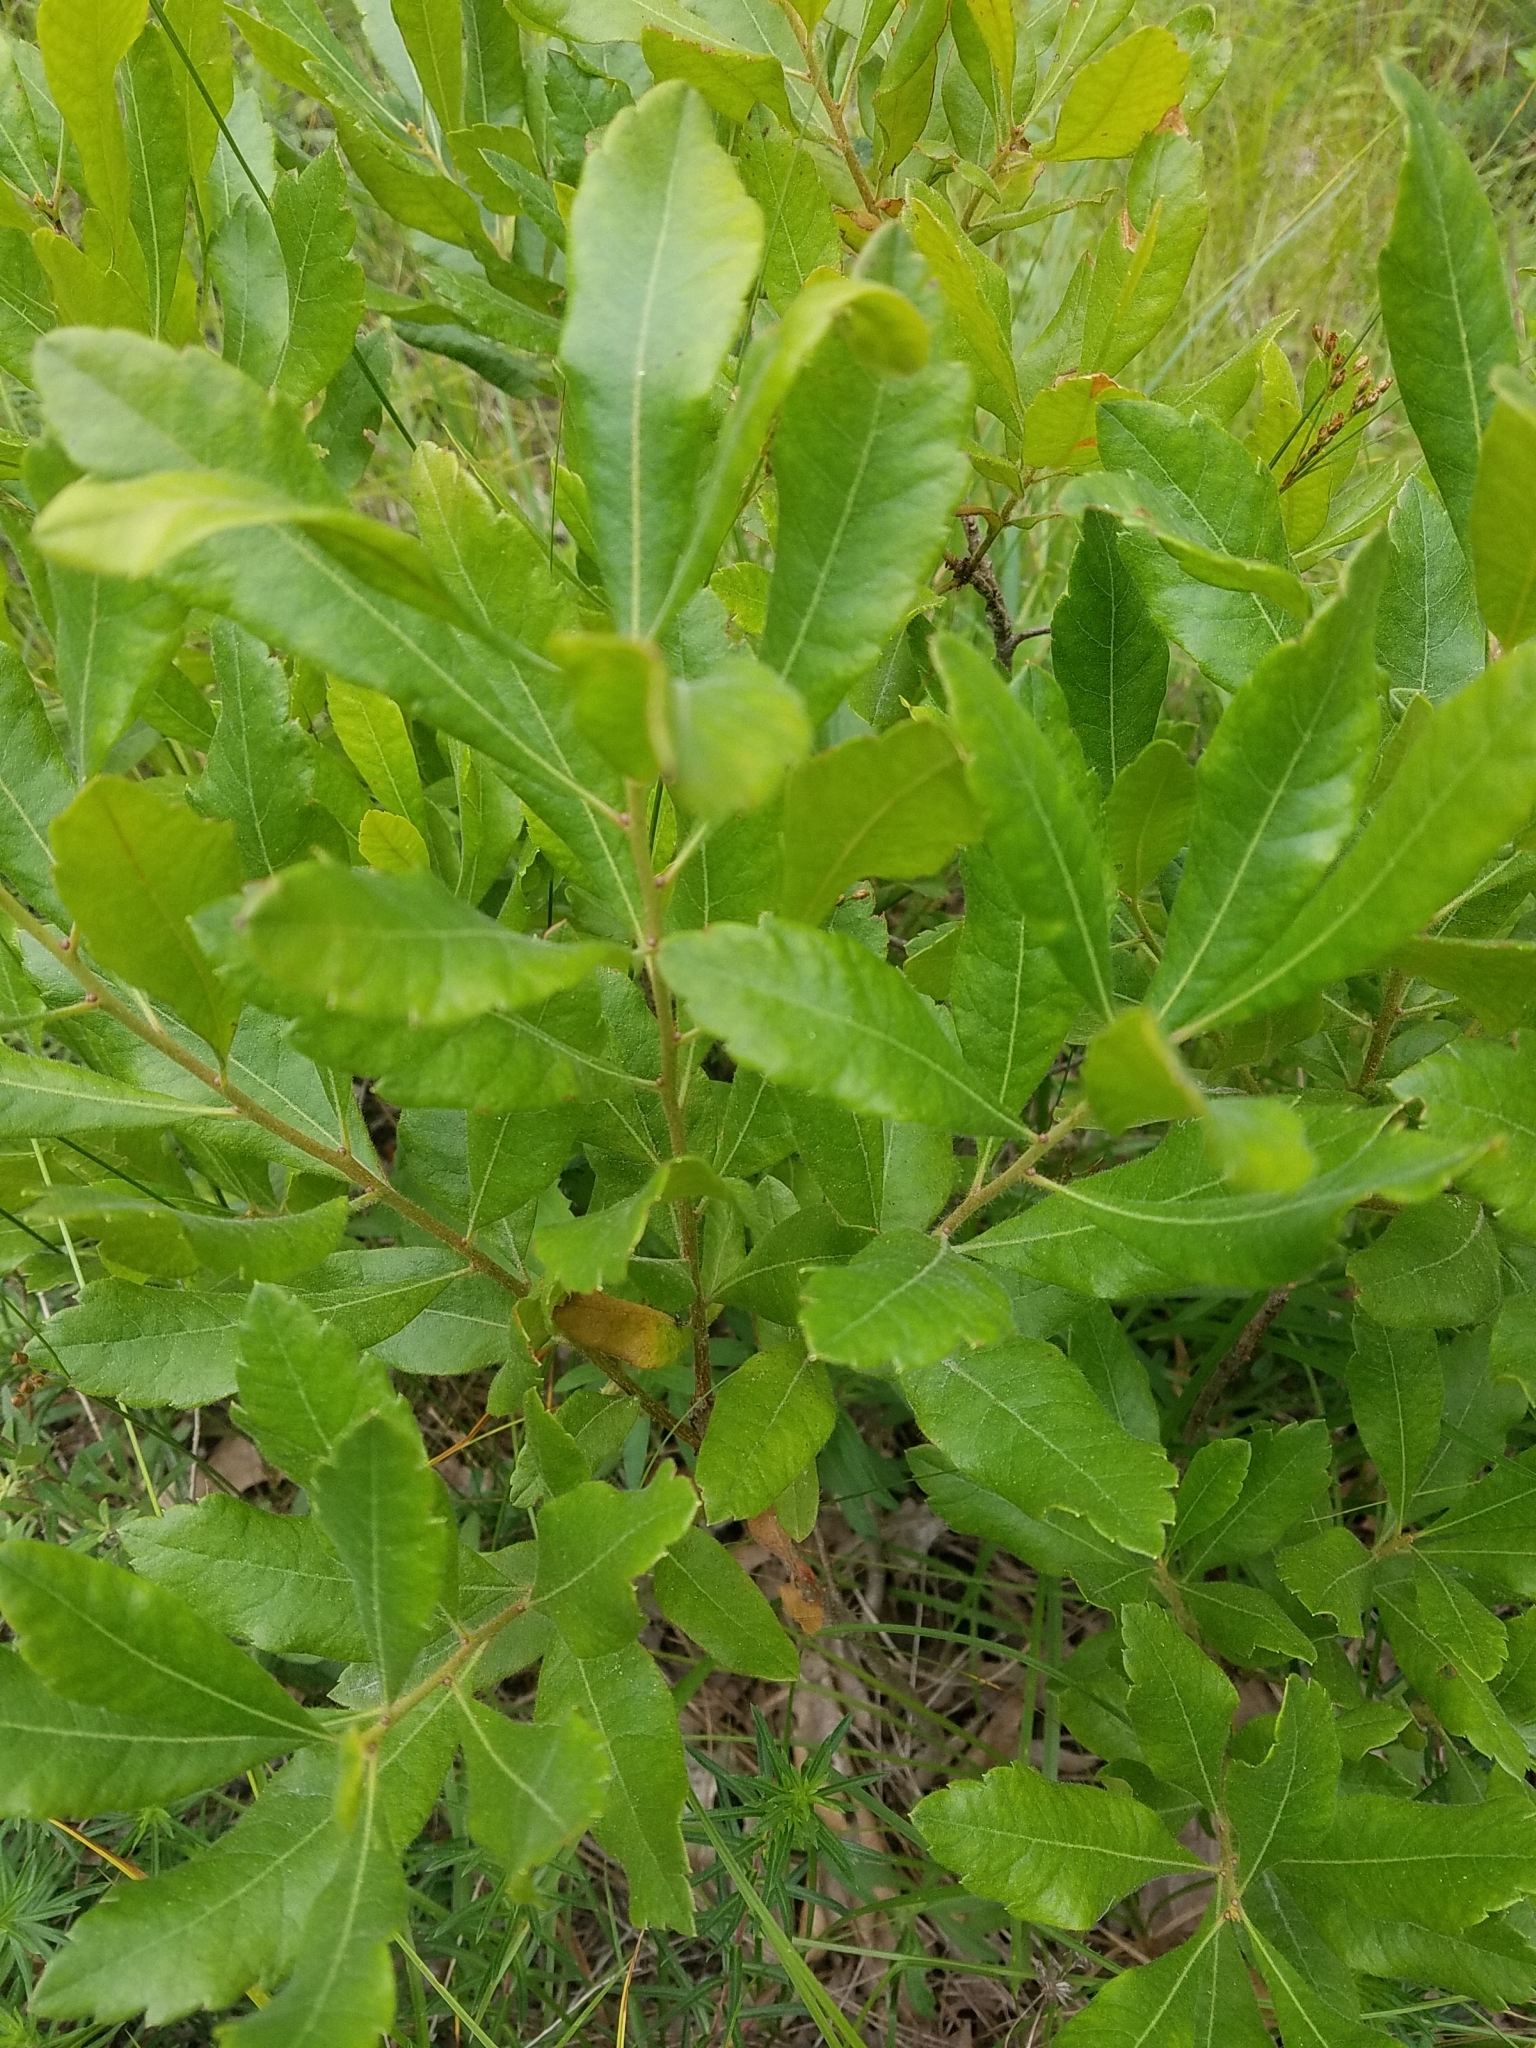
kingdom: Plantae
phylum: Tracheophyta
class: Magnoliopsida
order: Fagales
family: Myricaceae
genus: Morella
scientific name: Morella pensylvanica
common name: Northern bayberry
